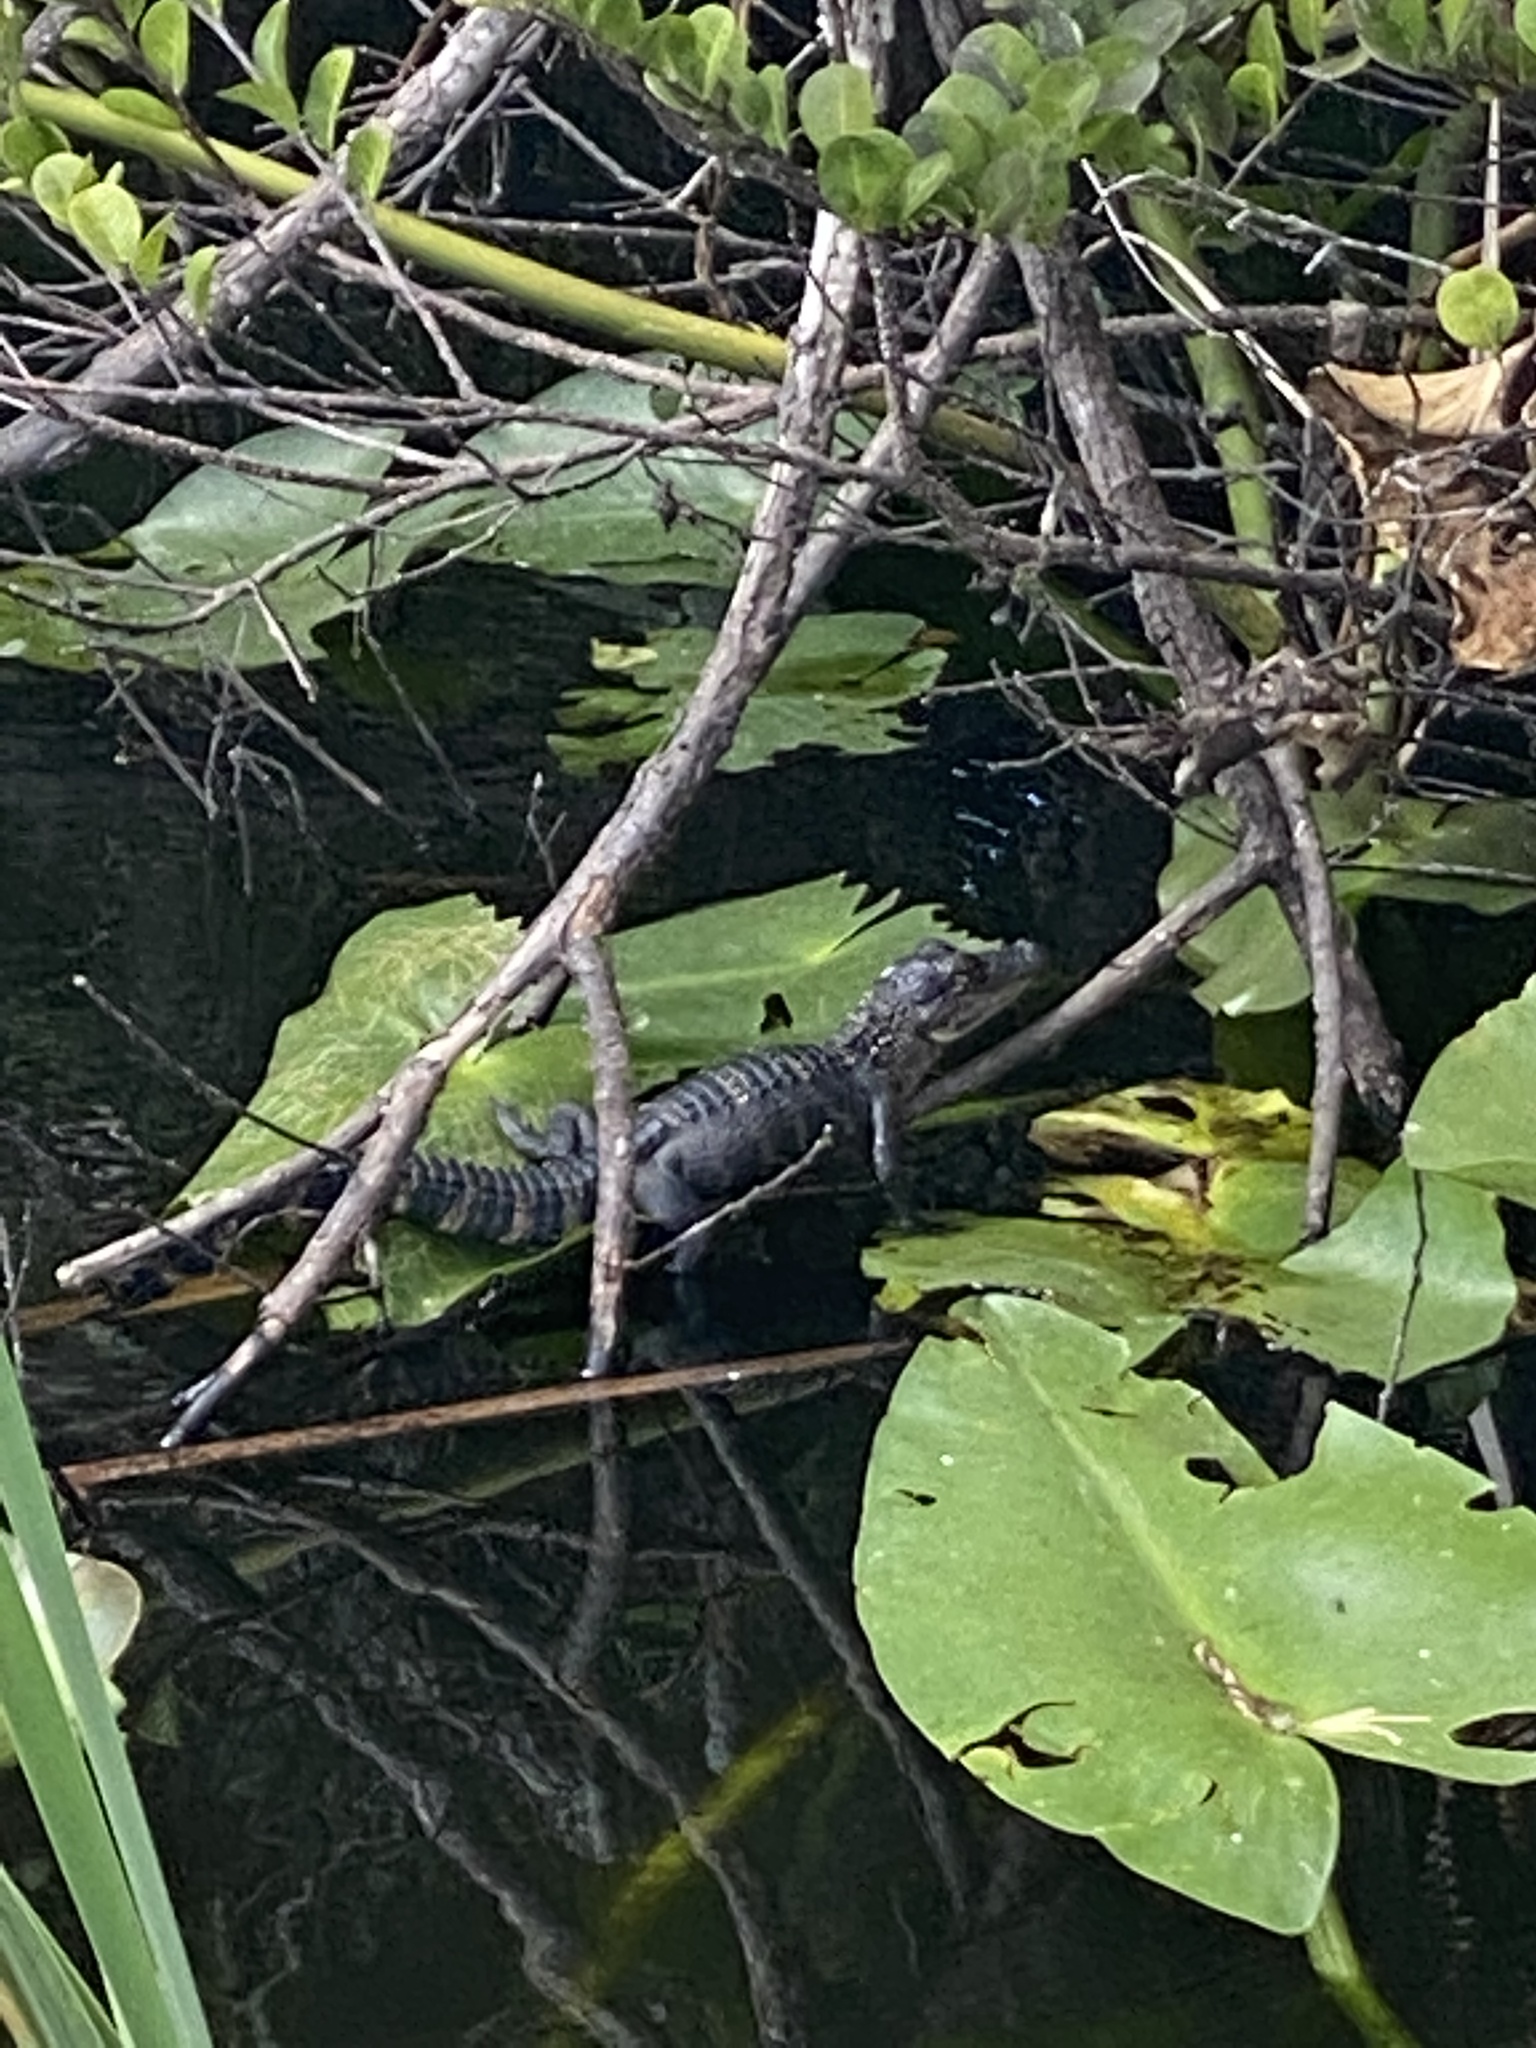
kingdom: Animalia
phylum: Chordata
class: Crocodylia
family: Alligatoridae
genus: Alligator
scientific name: Alligator mississippiensis
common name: American alligator
